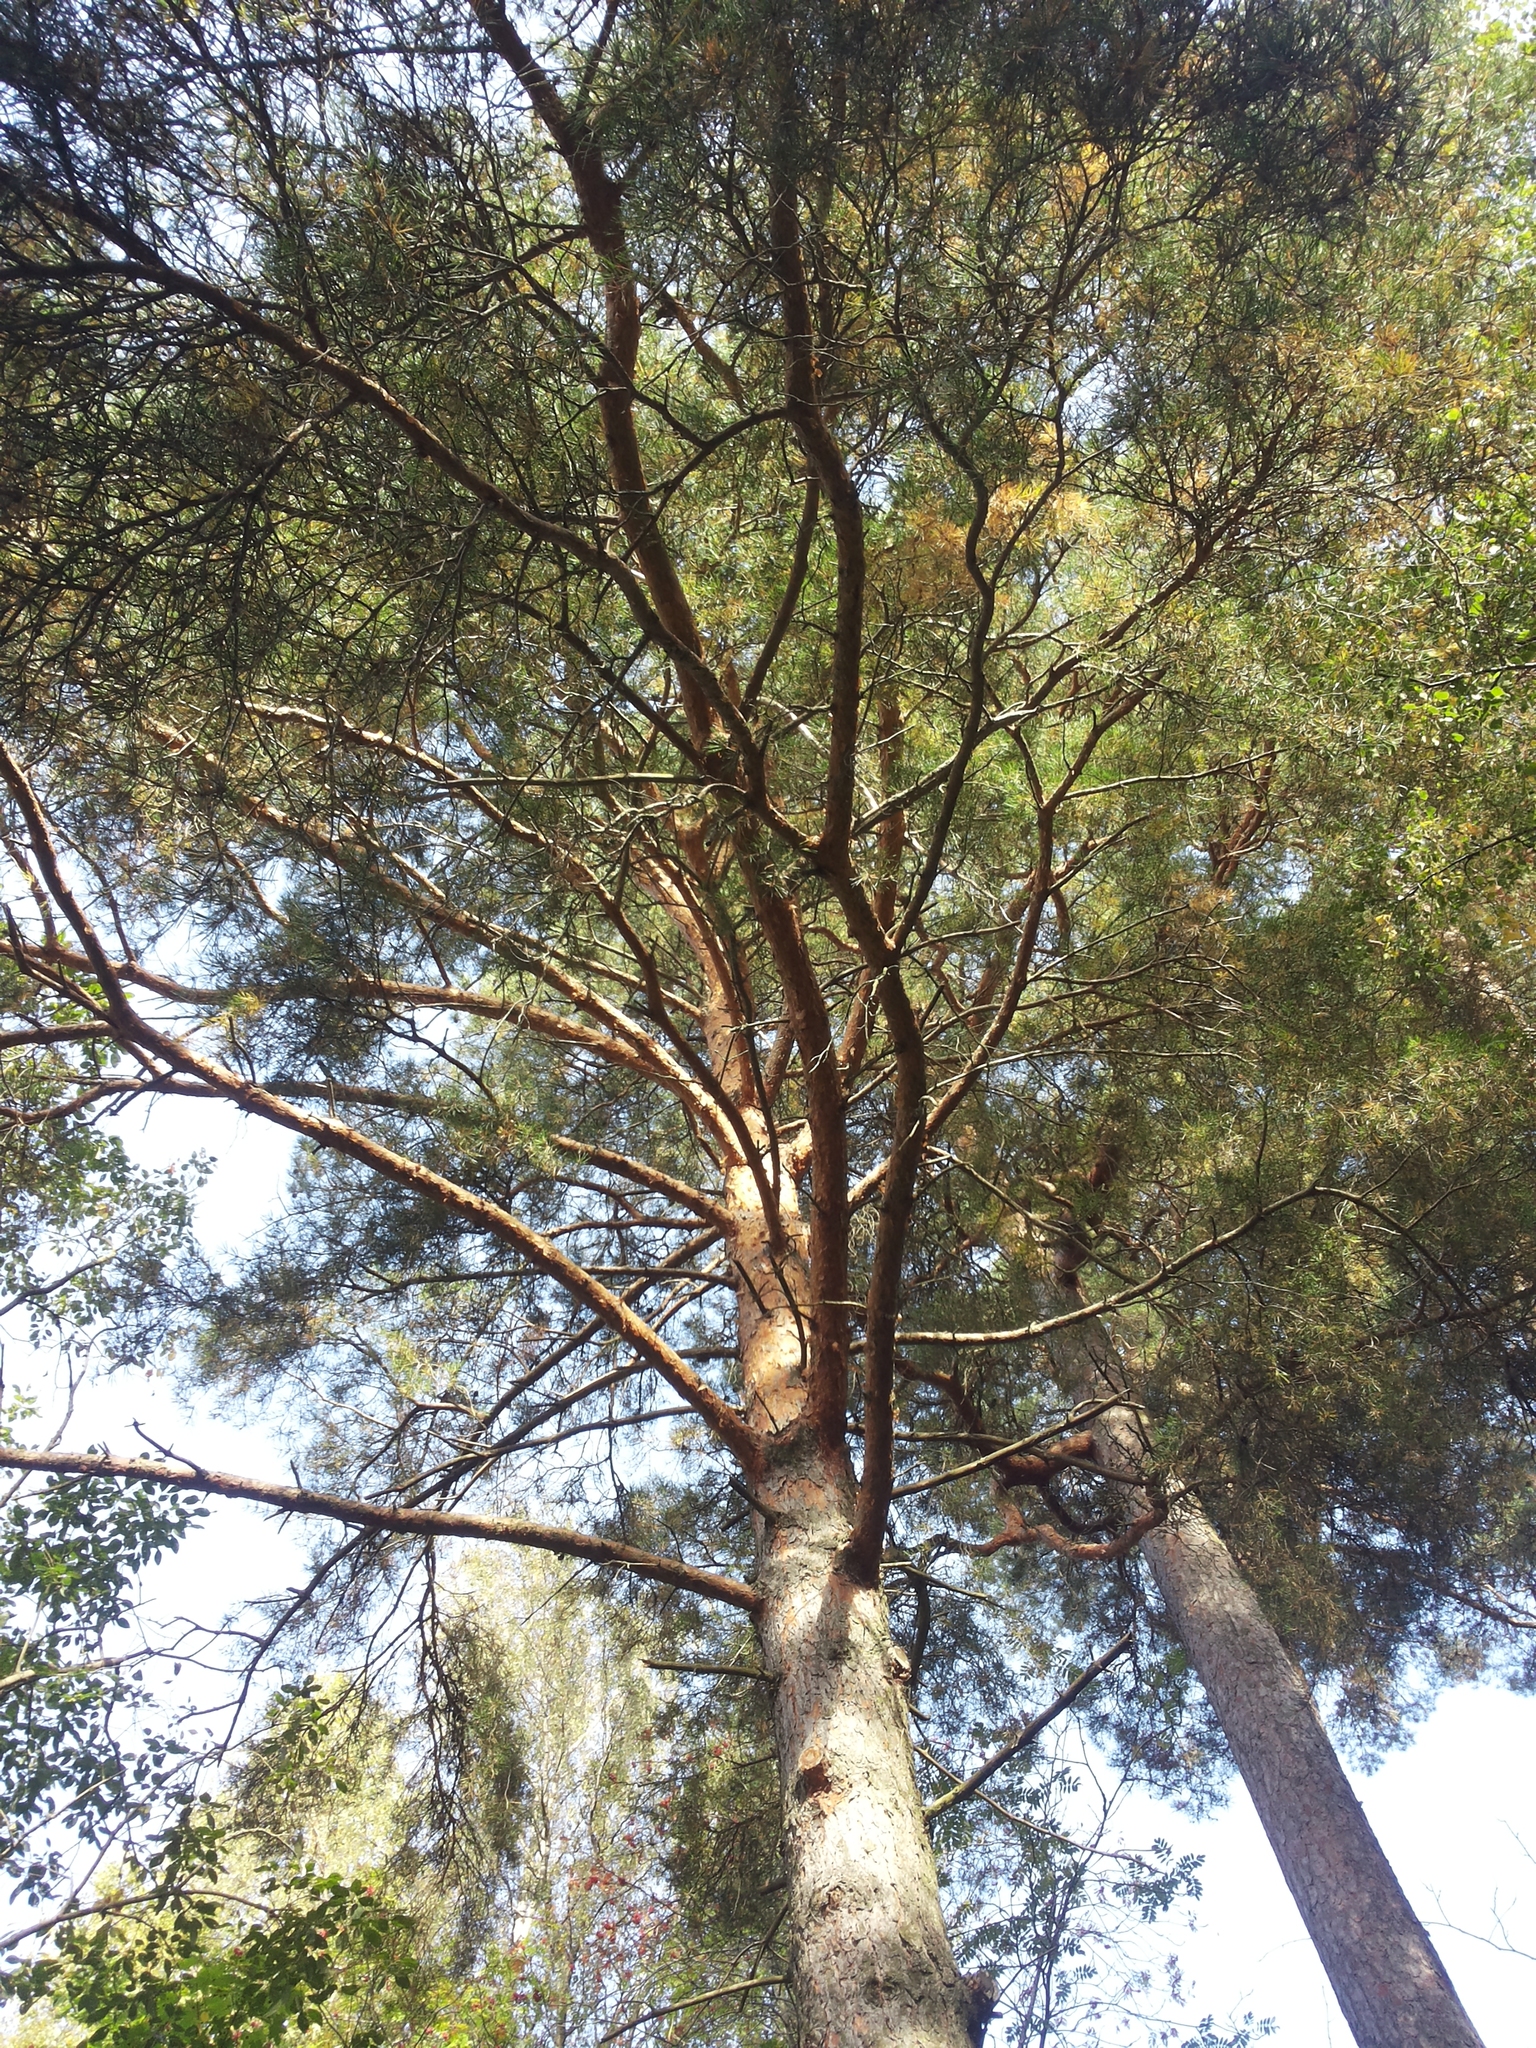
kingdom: Plantae
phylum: Tracheophyta
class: Pinopsida
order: Pinales
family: Pinaceae
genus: Pinus
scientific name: Pinus sylvestris
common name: Scots pine
